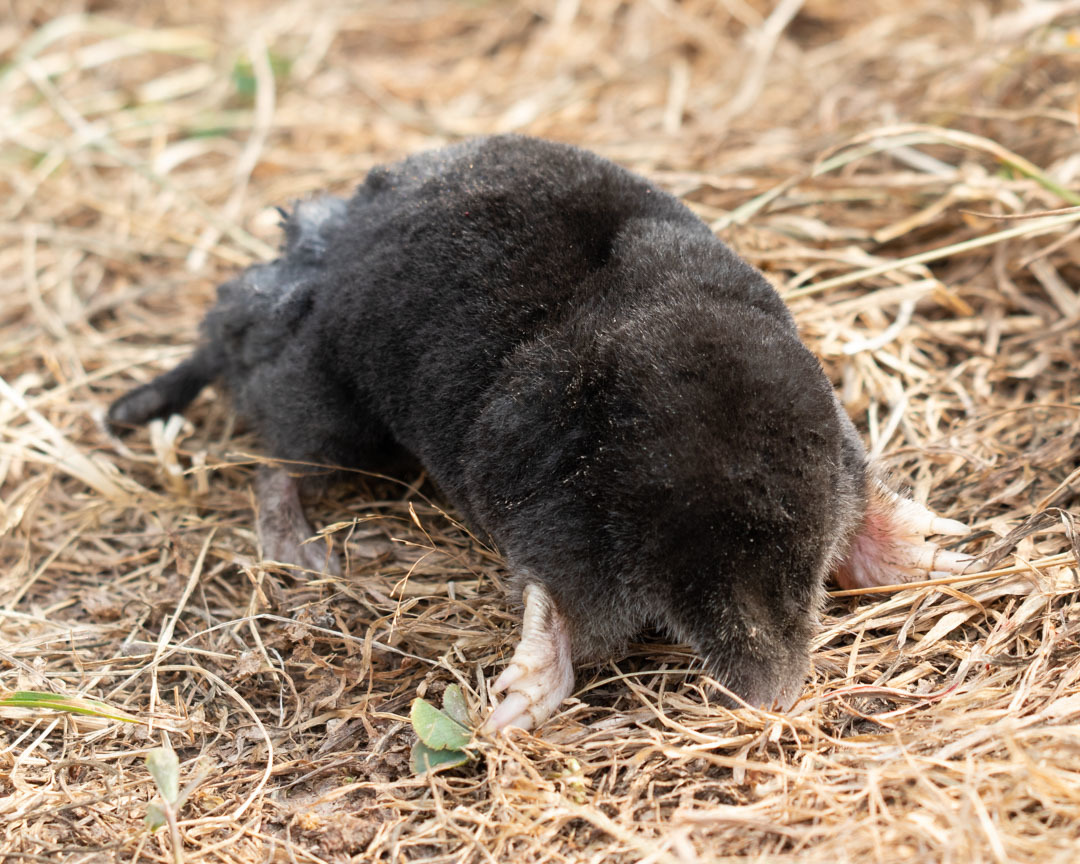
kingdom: Animalia
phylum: Chordata
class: Mammalia
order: Soricomorpha
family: Talpidae
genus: Talpa
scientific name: Talpa europaea
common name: European mole
